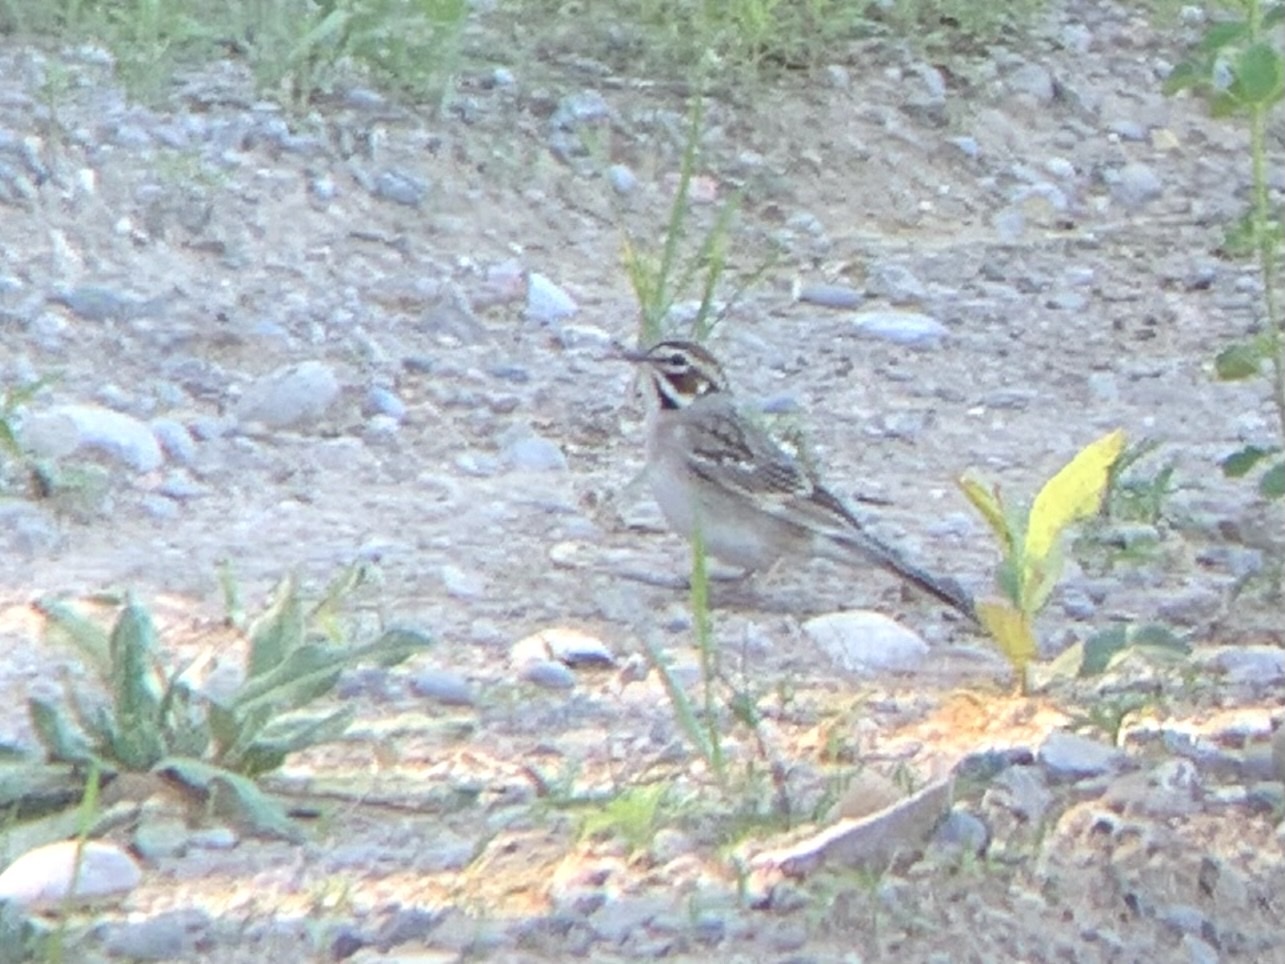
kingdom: Animalia
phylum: Chordata
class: Aves
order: Passeriformes
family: Passerellidae
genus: Chondestes
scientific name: Chondestes grammacus
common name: Lark sparrow
